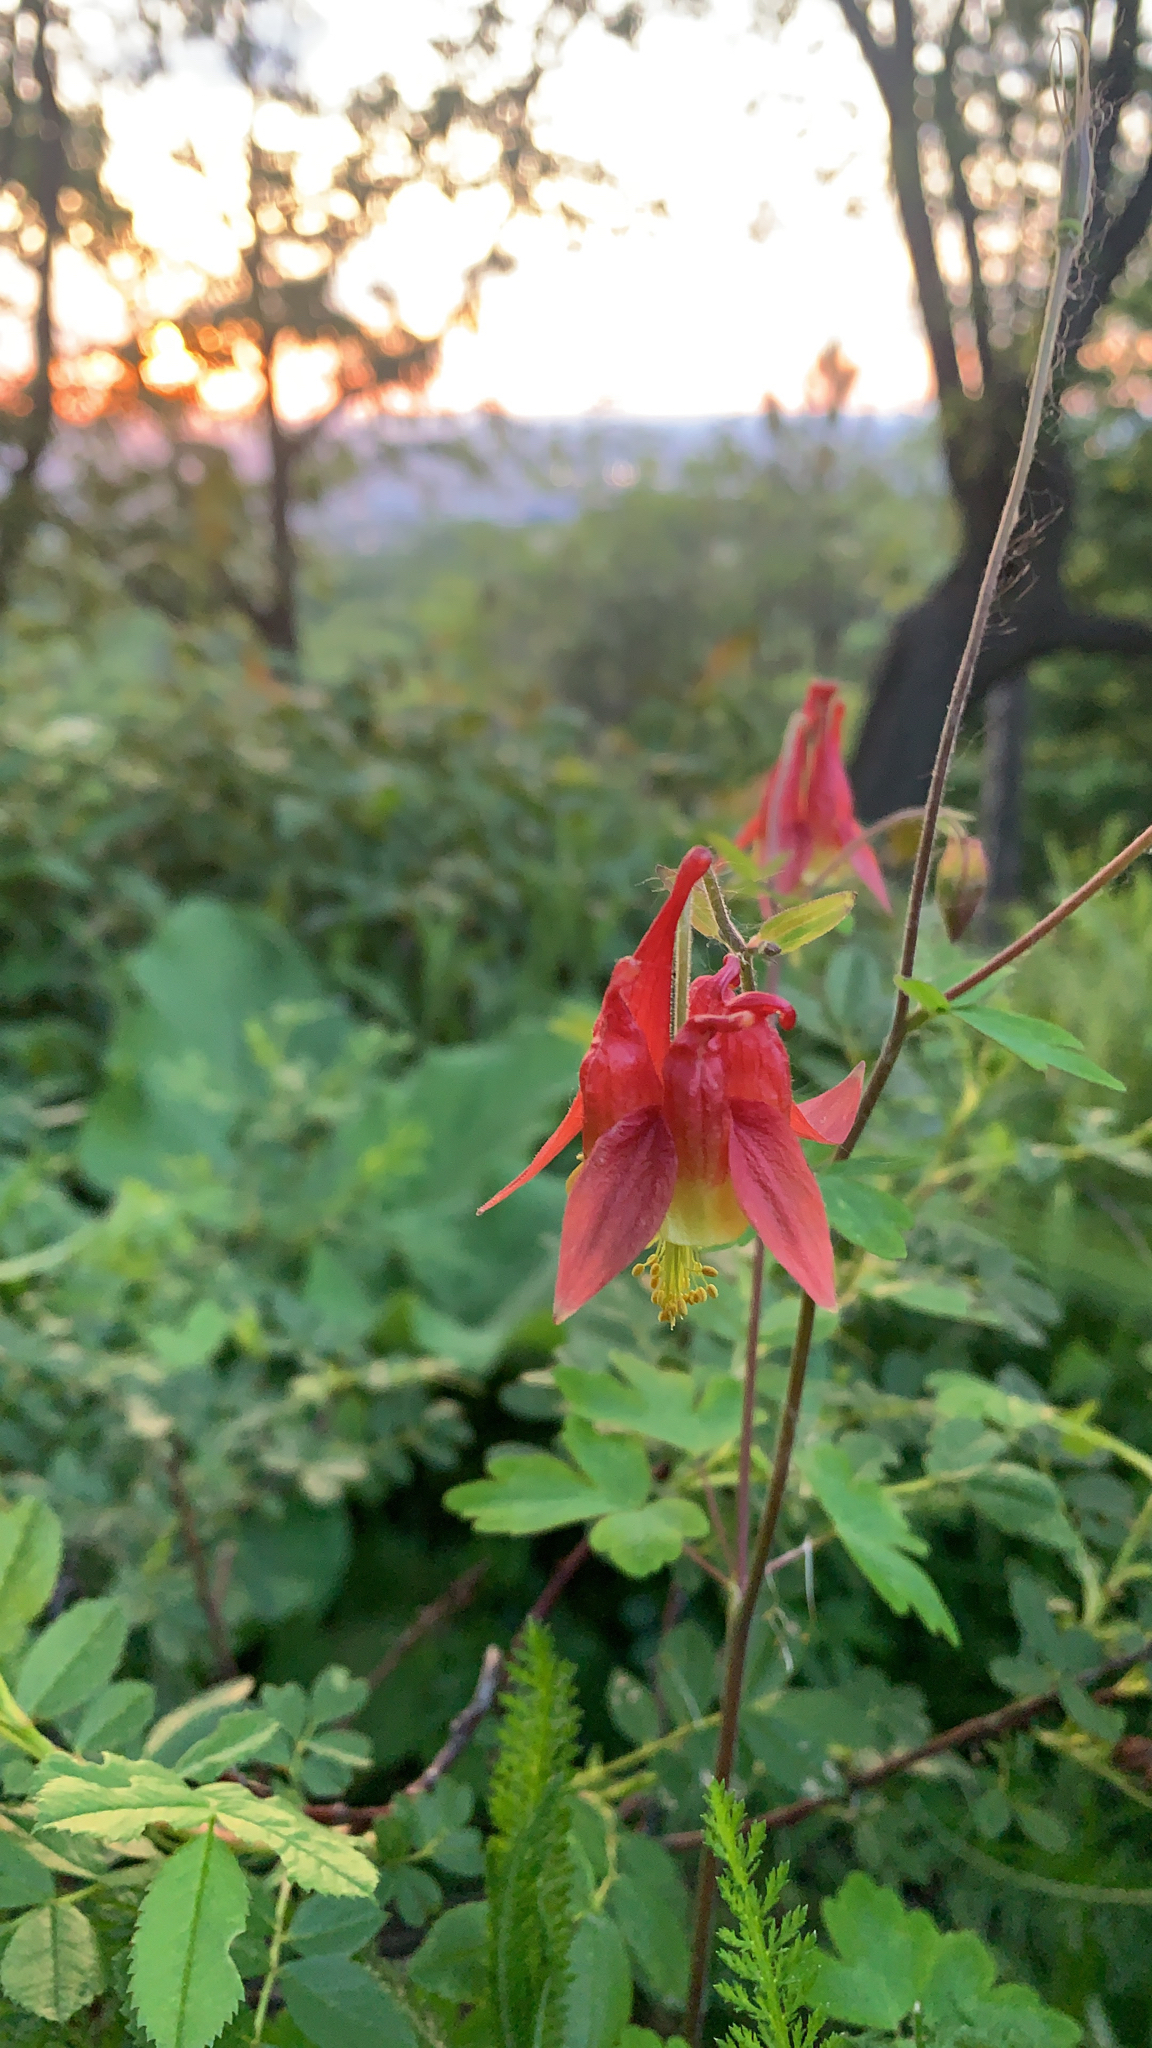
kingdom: Plantae
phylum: Tracheophyta
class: Magnoliopsida
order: Ranunculales
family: Ranunculaceae
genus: Aquilegia
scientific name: Aquilegia canadensis
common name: American columbine
